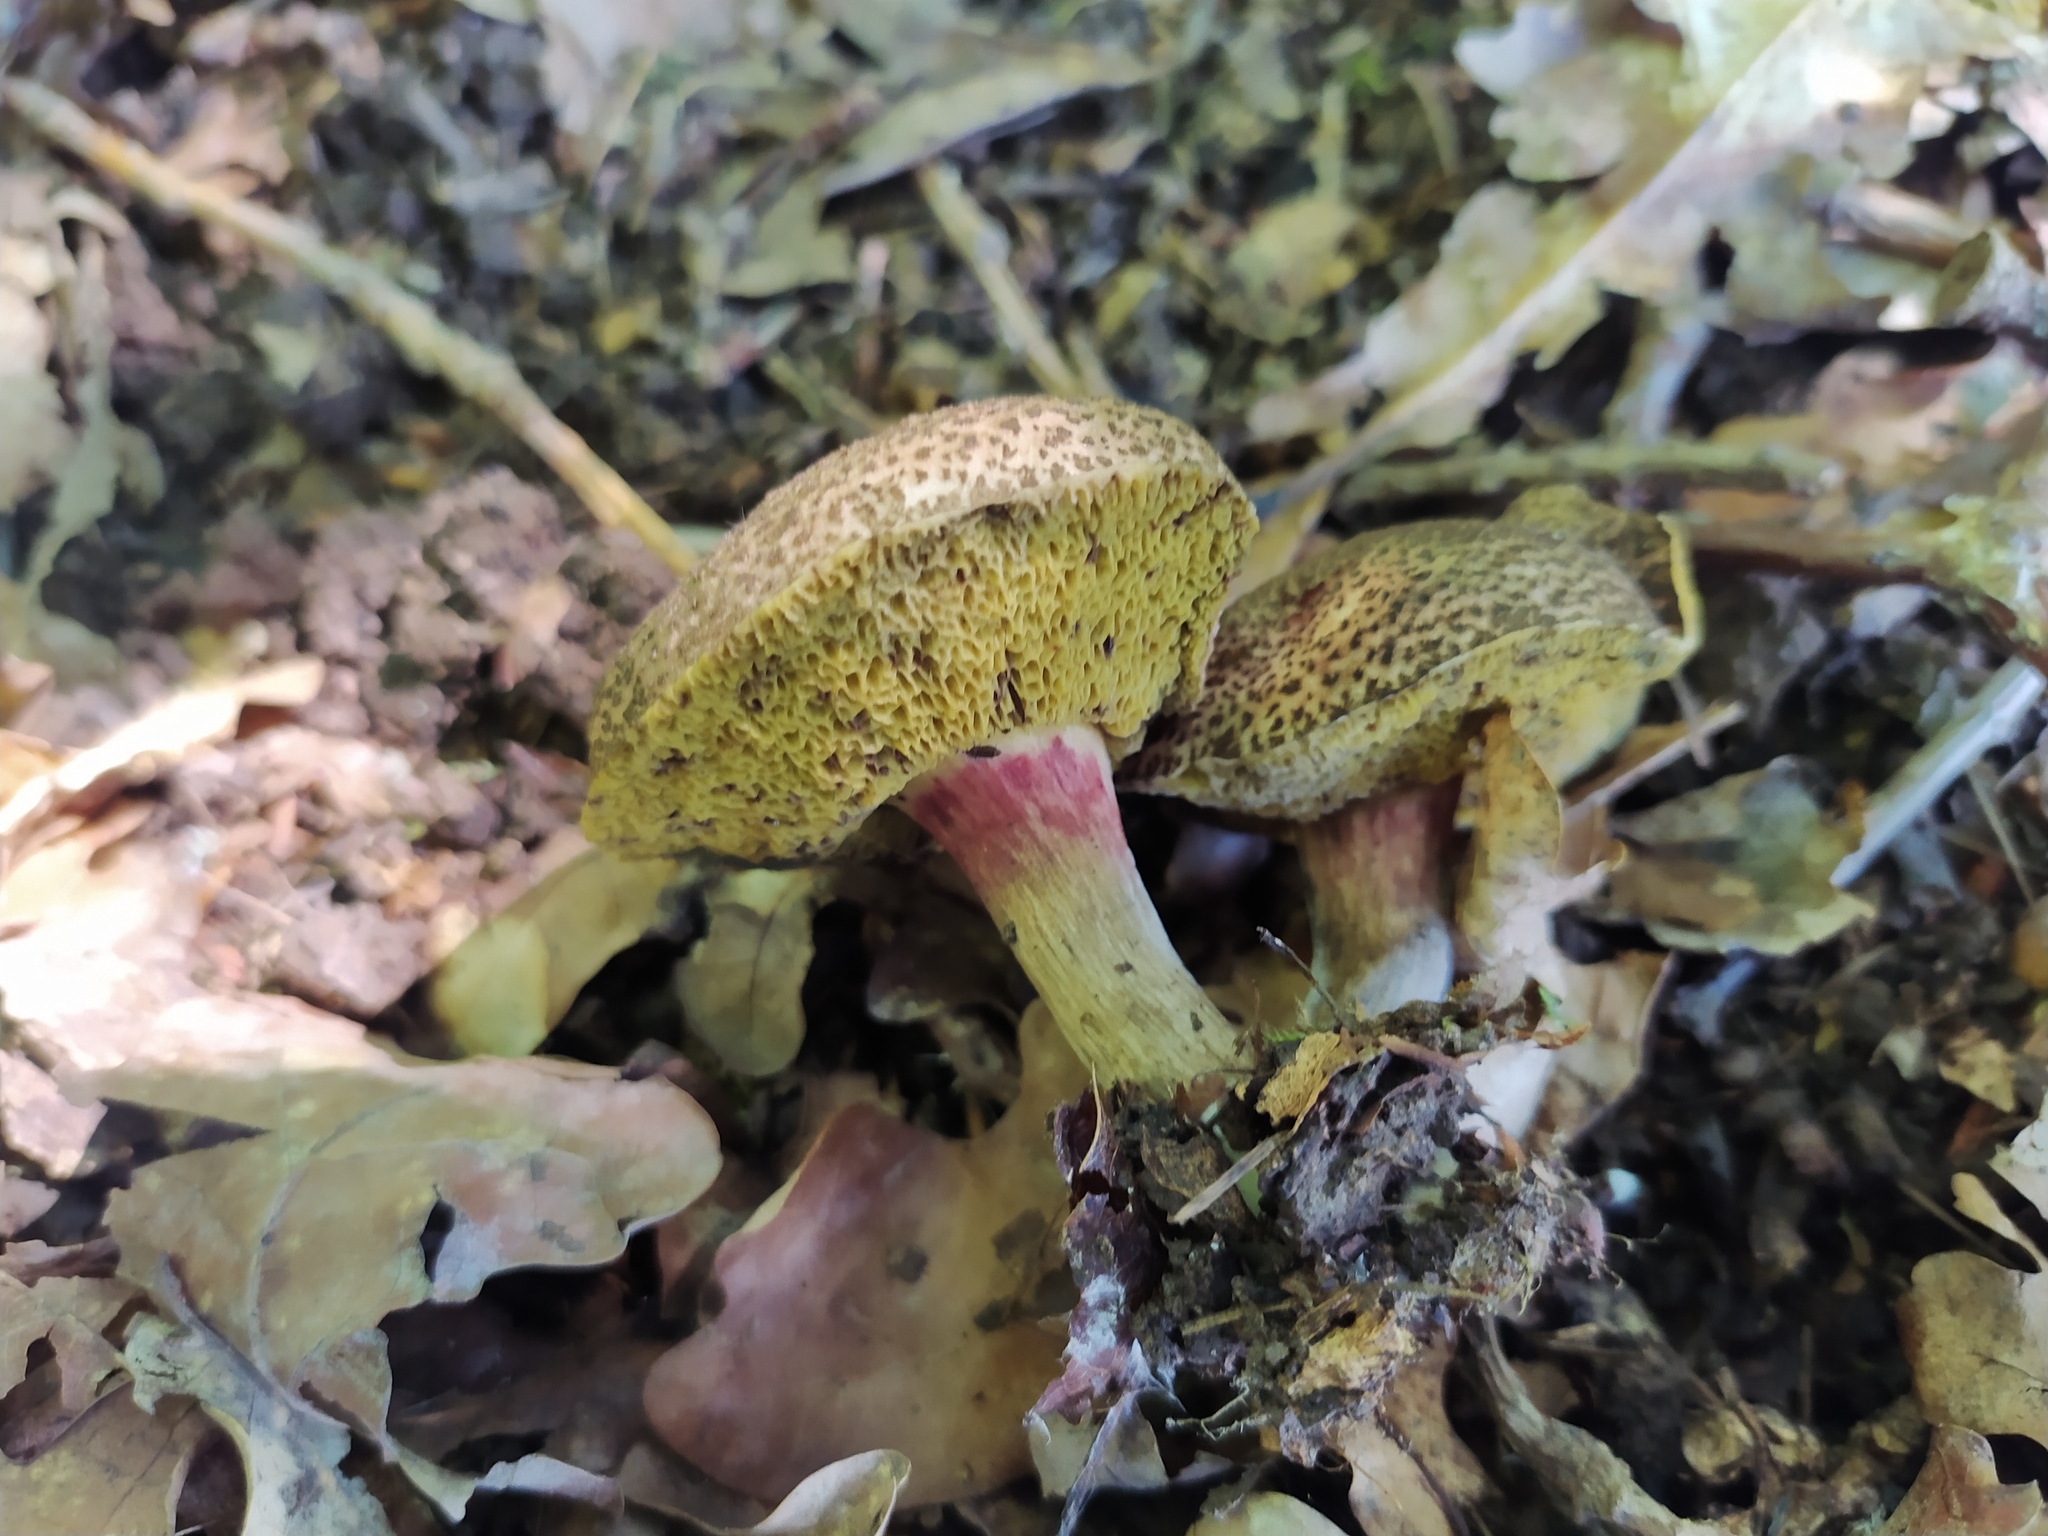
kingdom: Fungi
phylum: Basidiomycota
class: Agaricomycetes
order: Boletales
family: Boletaceae
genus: Xerocomellus
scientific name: Xerocomellus chrysenteron
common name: Red-cracking bolete
